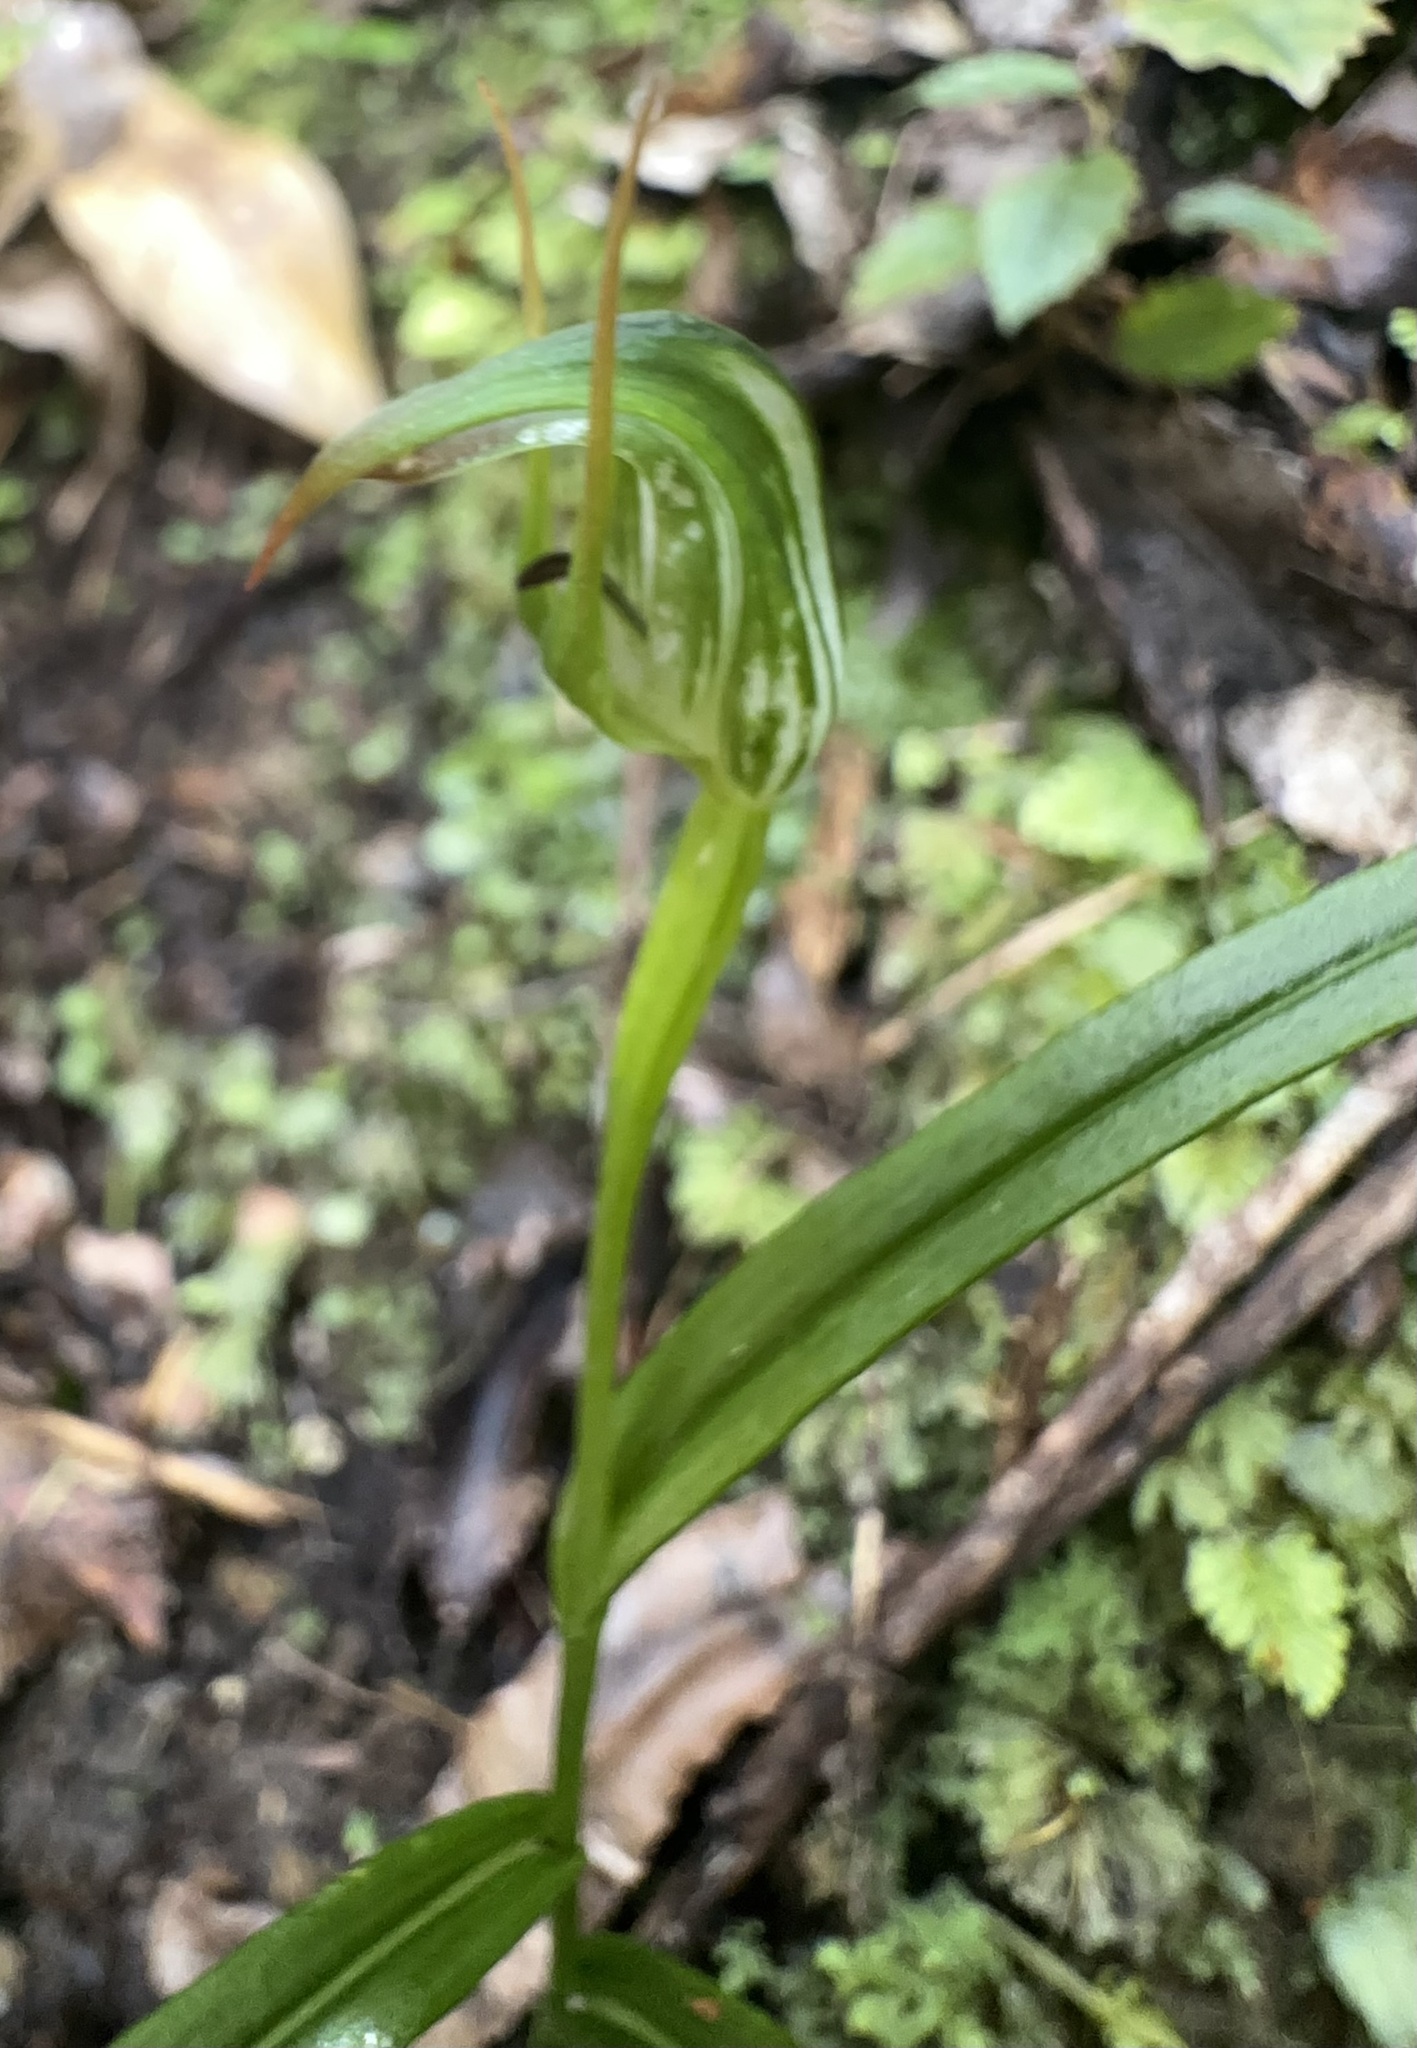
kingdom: Plantae
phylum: Tracheophyta
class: Liliopsida
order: Asparagales
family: Orchidaceae
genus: Pterostylis
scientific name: Pterostylis graminea
